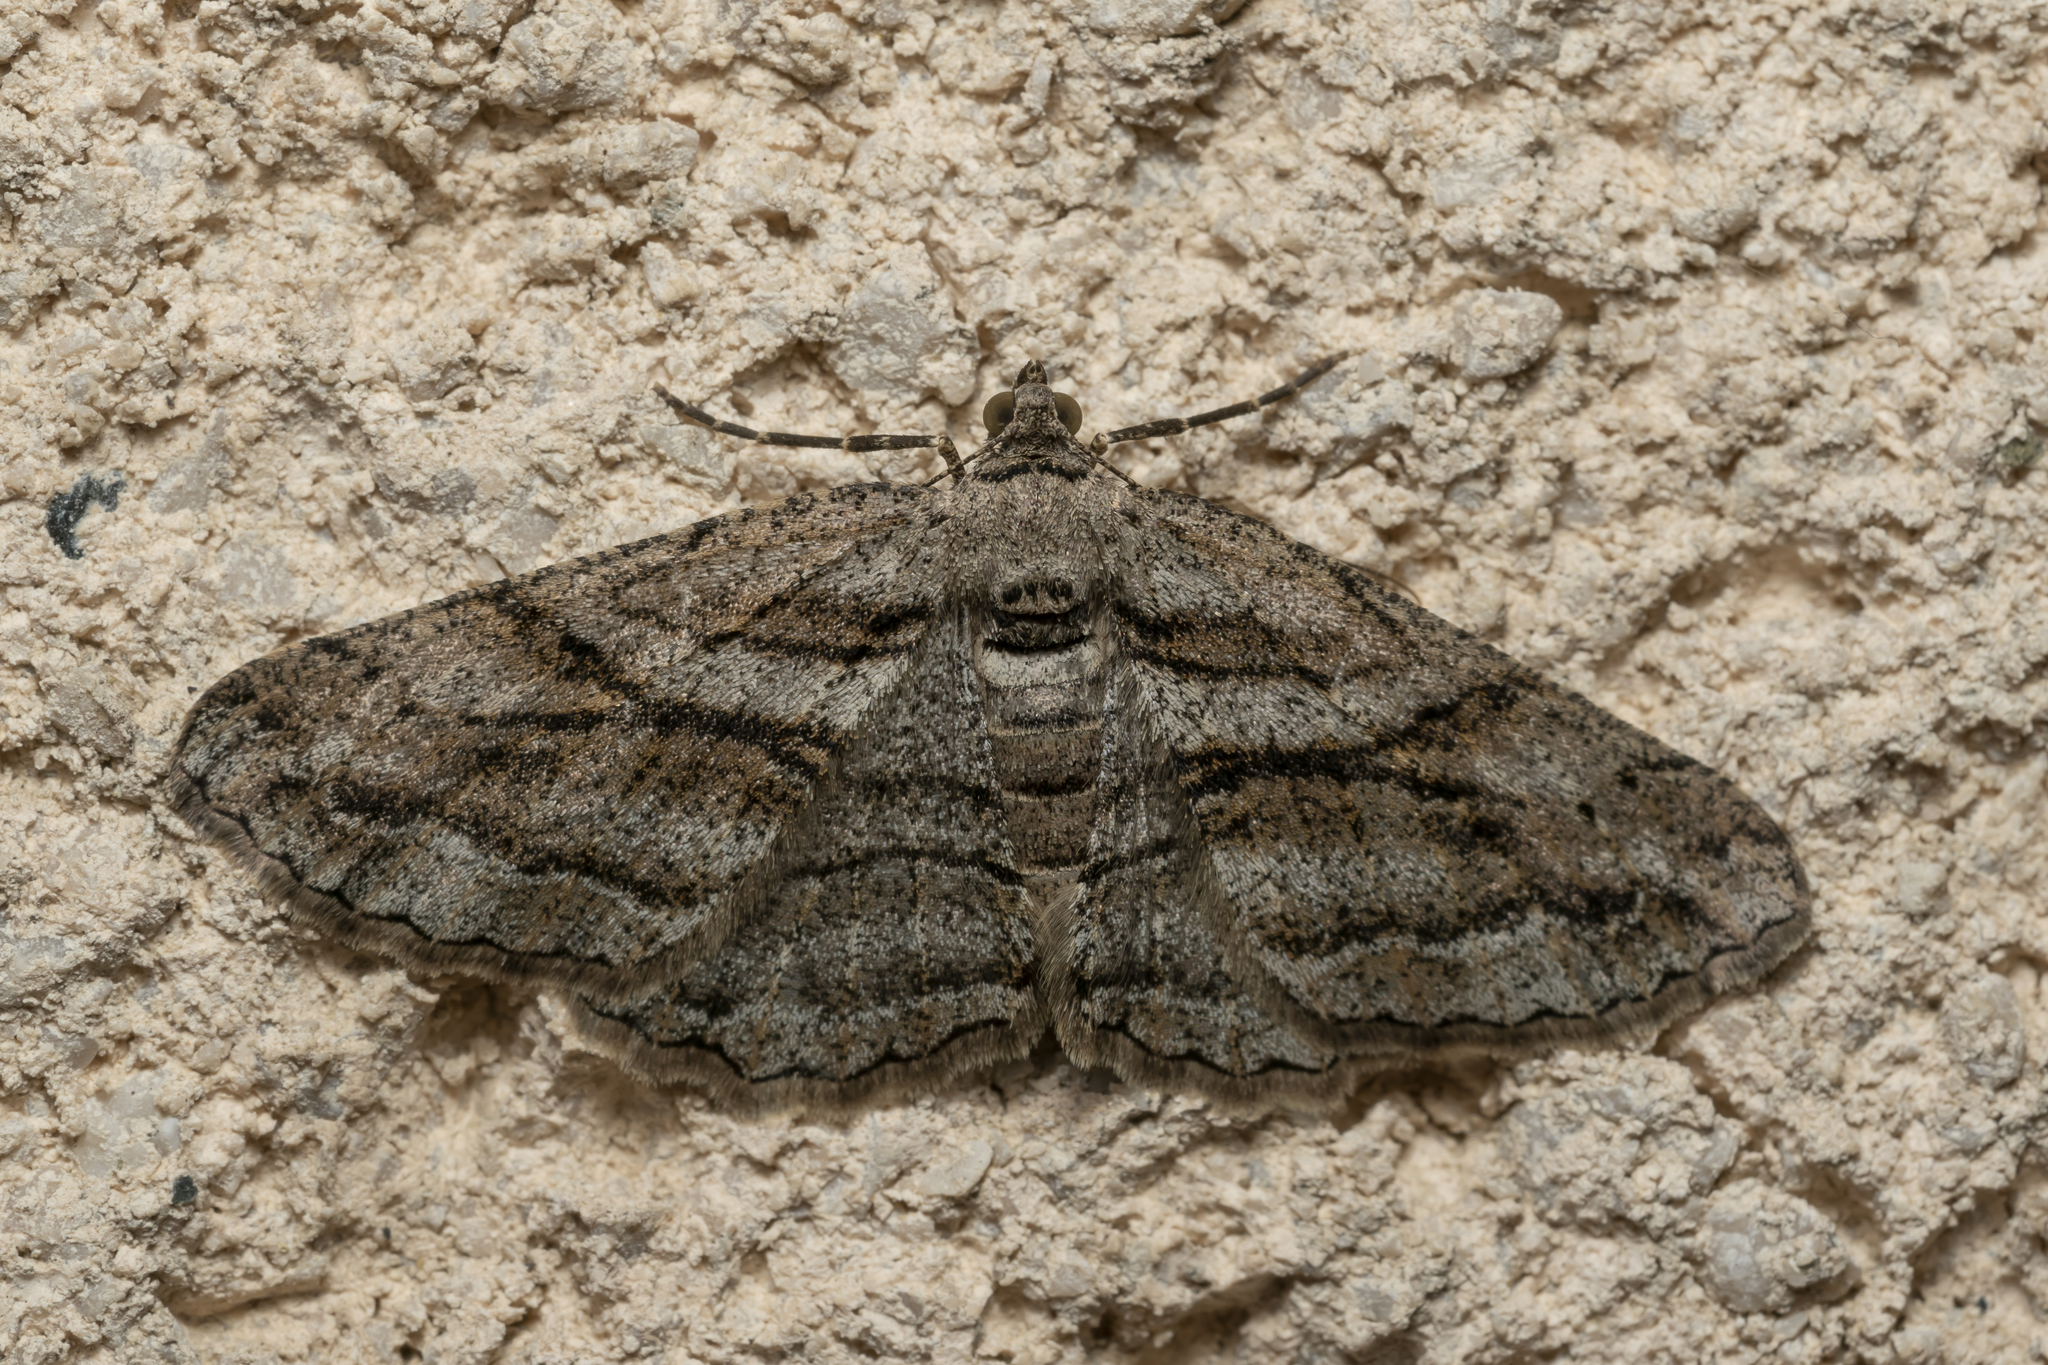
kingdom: Animalia
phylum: Arthropoda
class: Insecta
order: Lepidoptera
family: Geometridae
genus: Peribatodes
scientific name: Peribatodes correptaria
